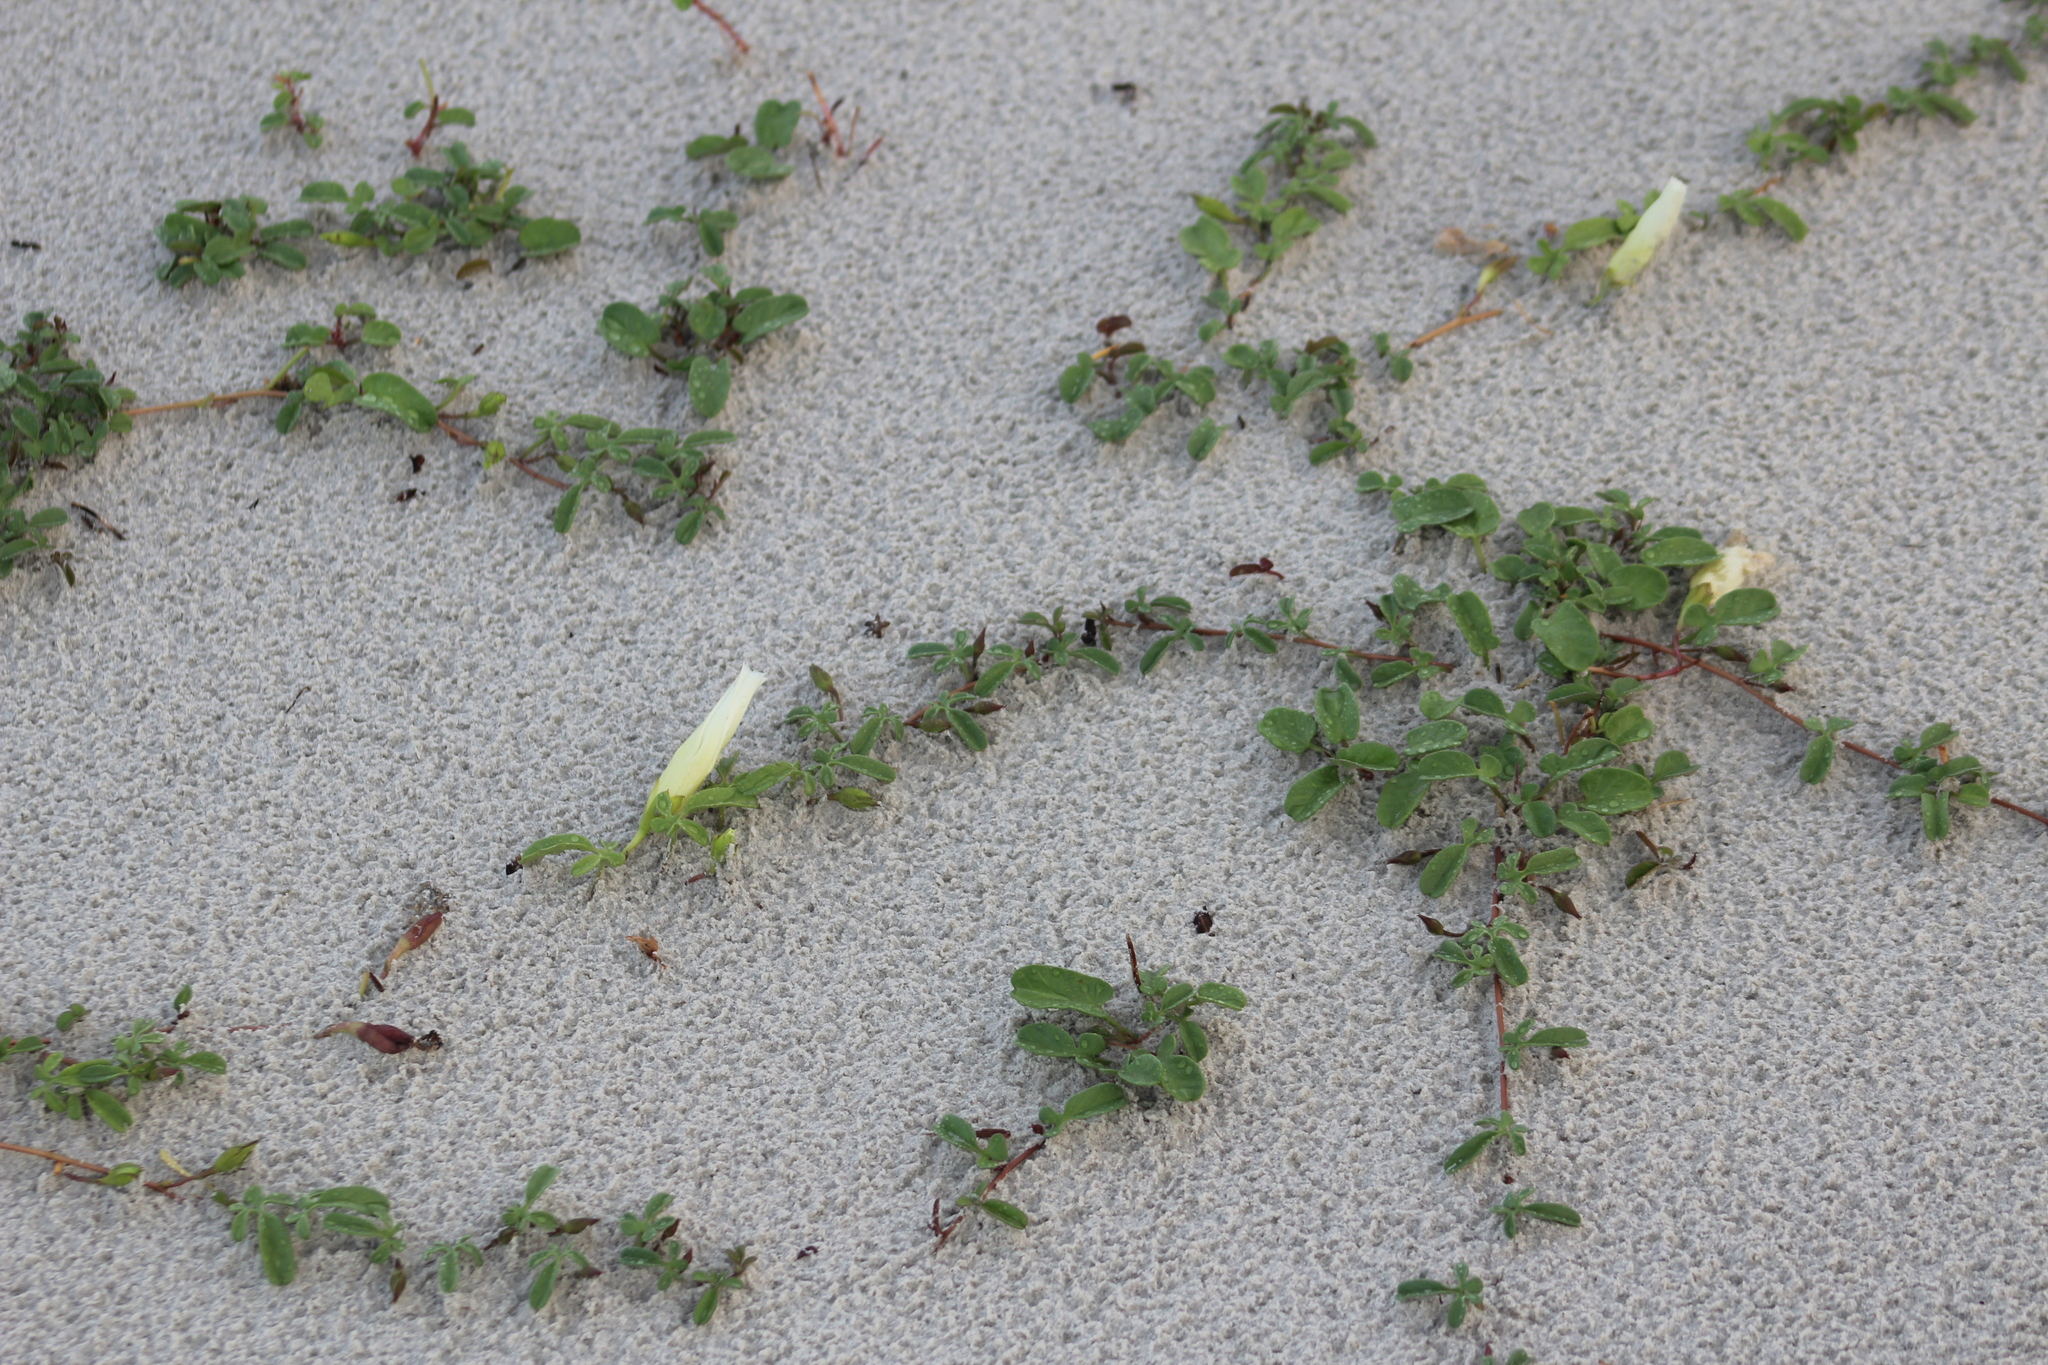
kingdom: Plantae
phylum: Tracheophyta
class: Magnoliopsida
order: Solanales
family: Convolvulaceae
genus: Ipomoea
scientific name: Ipomoea imperati
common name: Fiddle-leaf morning-glory
